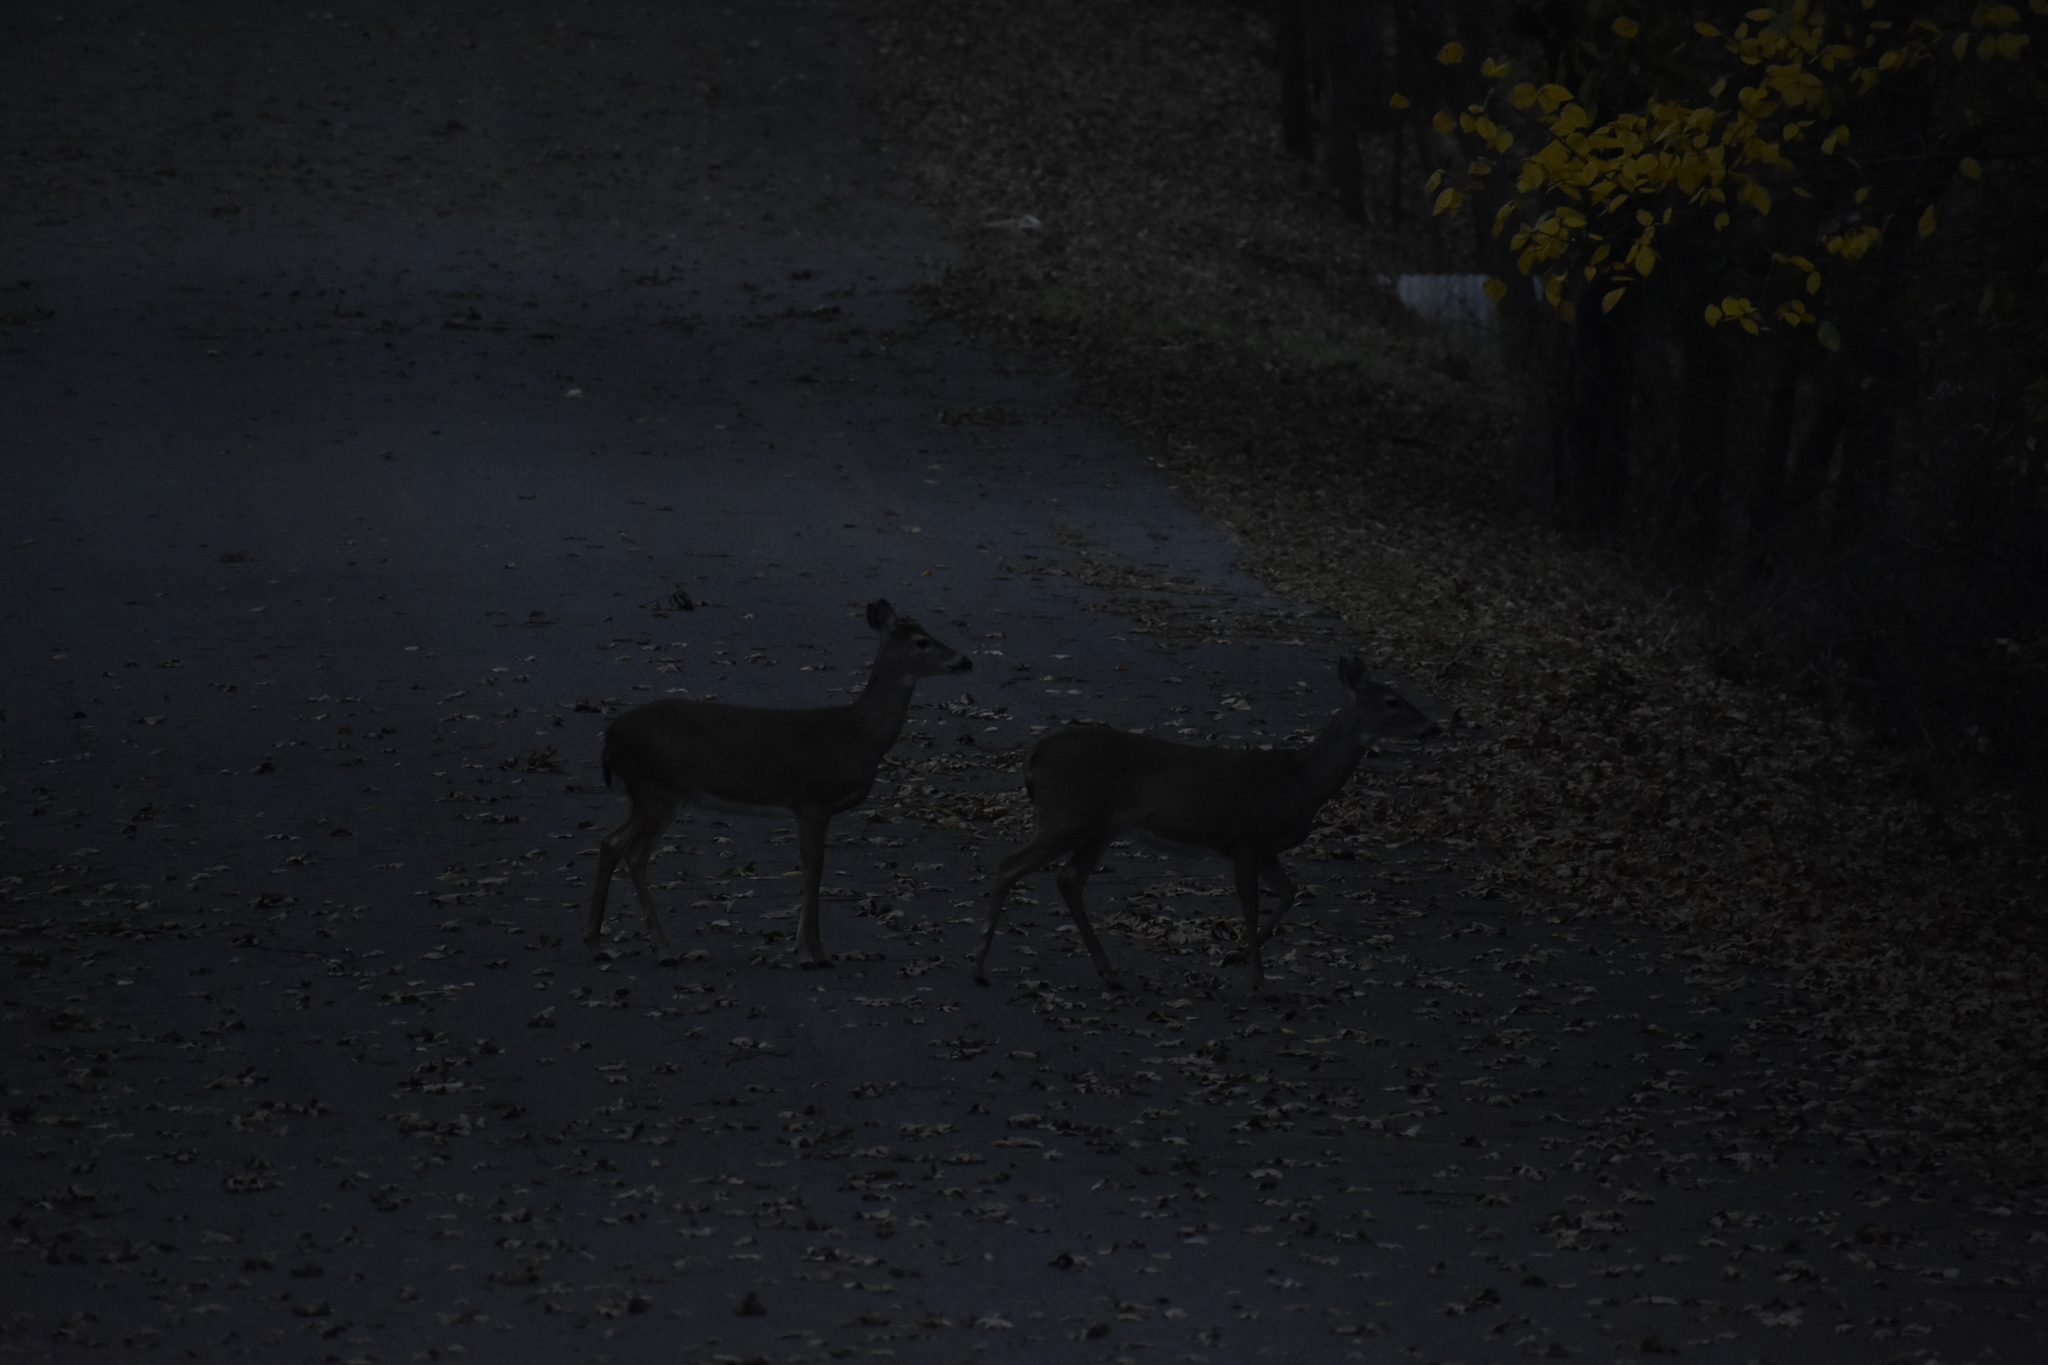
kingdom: Animalia
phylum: Chordata
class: Mammalia
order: Artiodactyla
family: Cervidae
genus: Odocoileus
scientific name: Odocoileus virginianus
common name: White-tailed deer
